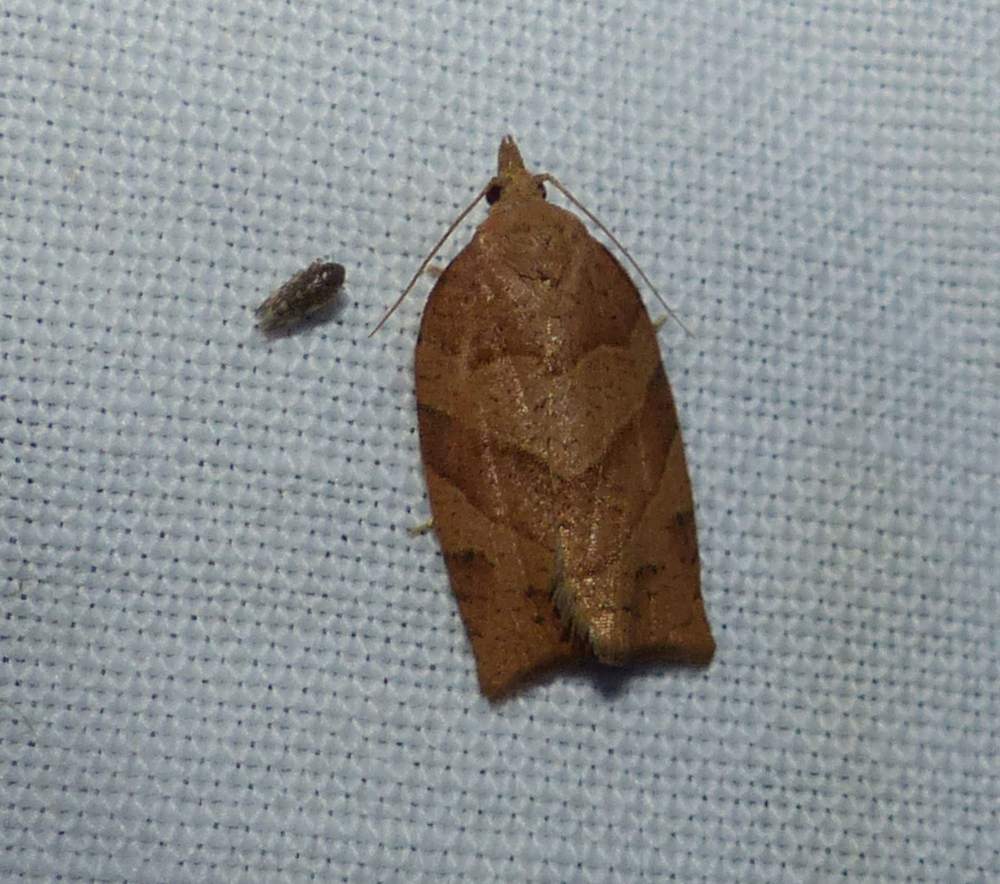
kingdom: Animalia
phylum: Arthropoda
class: Insecta
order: Lepidoptera
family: Tortricidae
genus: Pandemis
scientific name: Pandemis lamprosana
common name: Woodgrain leafroller moth
